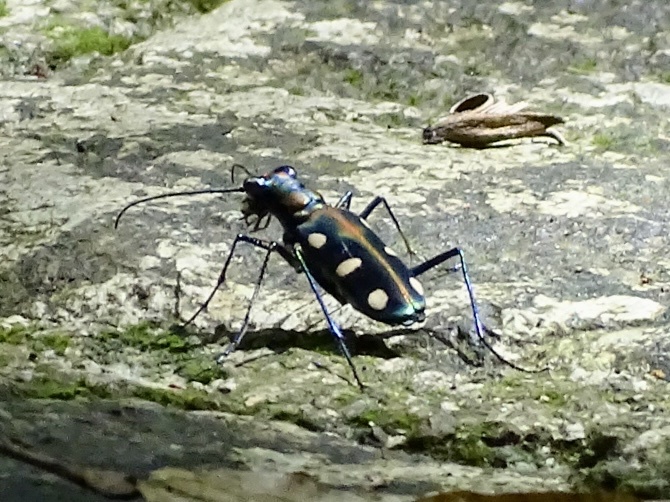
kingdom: Animalia
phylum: Arthropoda
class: Insecta
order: Coleoptera
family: Carabidae
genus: Cicindela
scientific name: Cicindela juxtata
